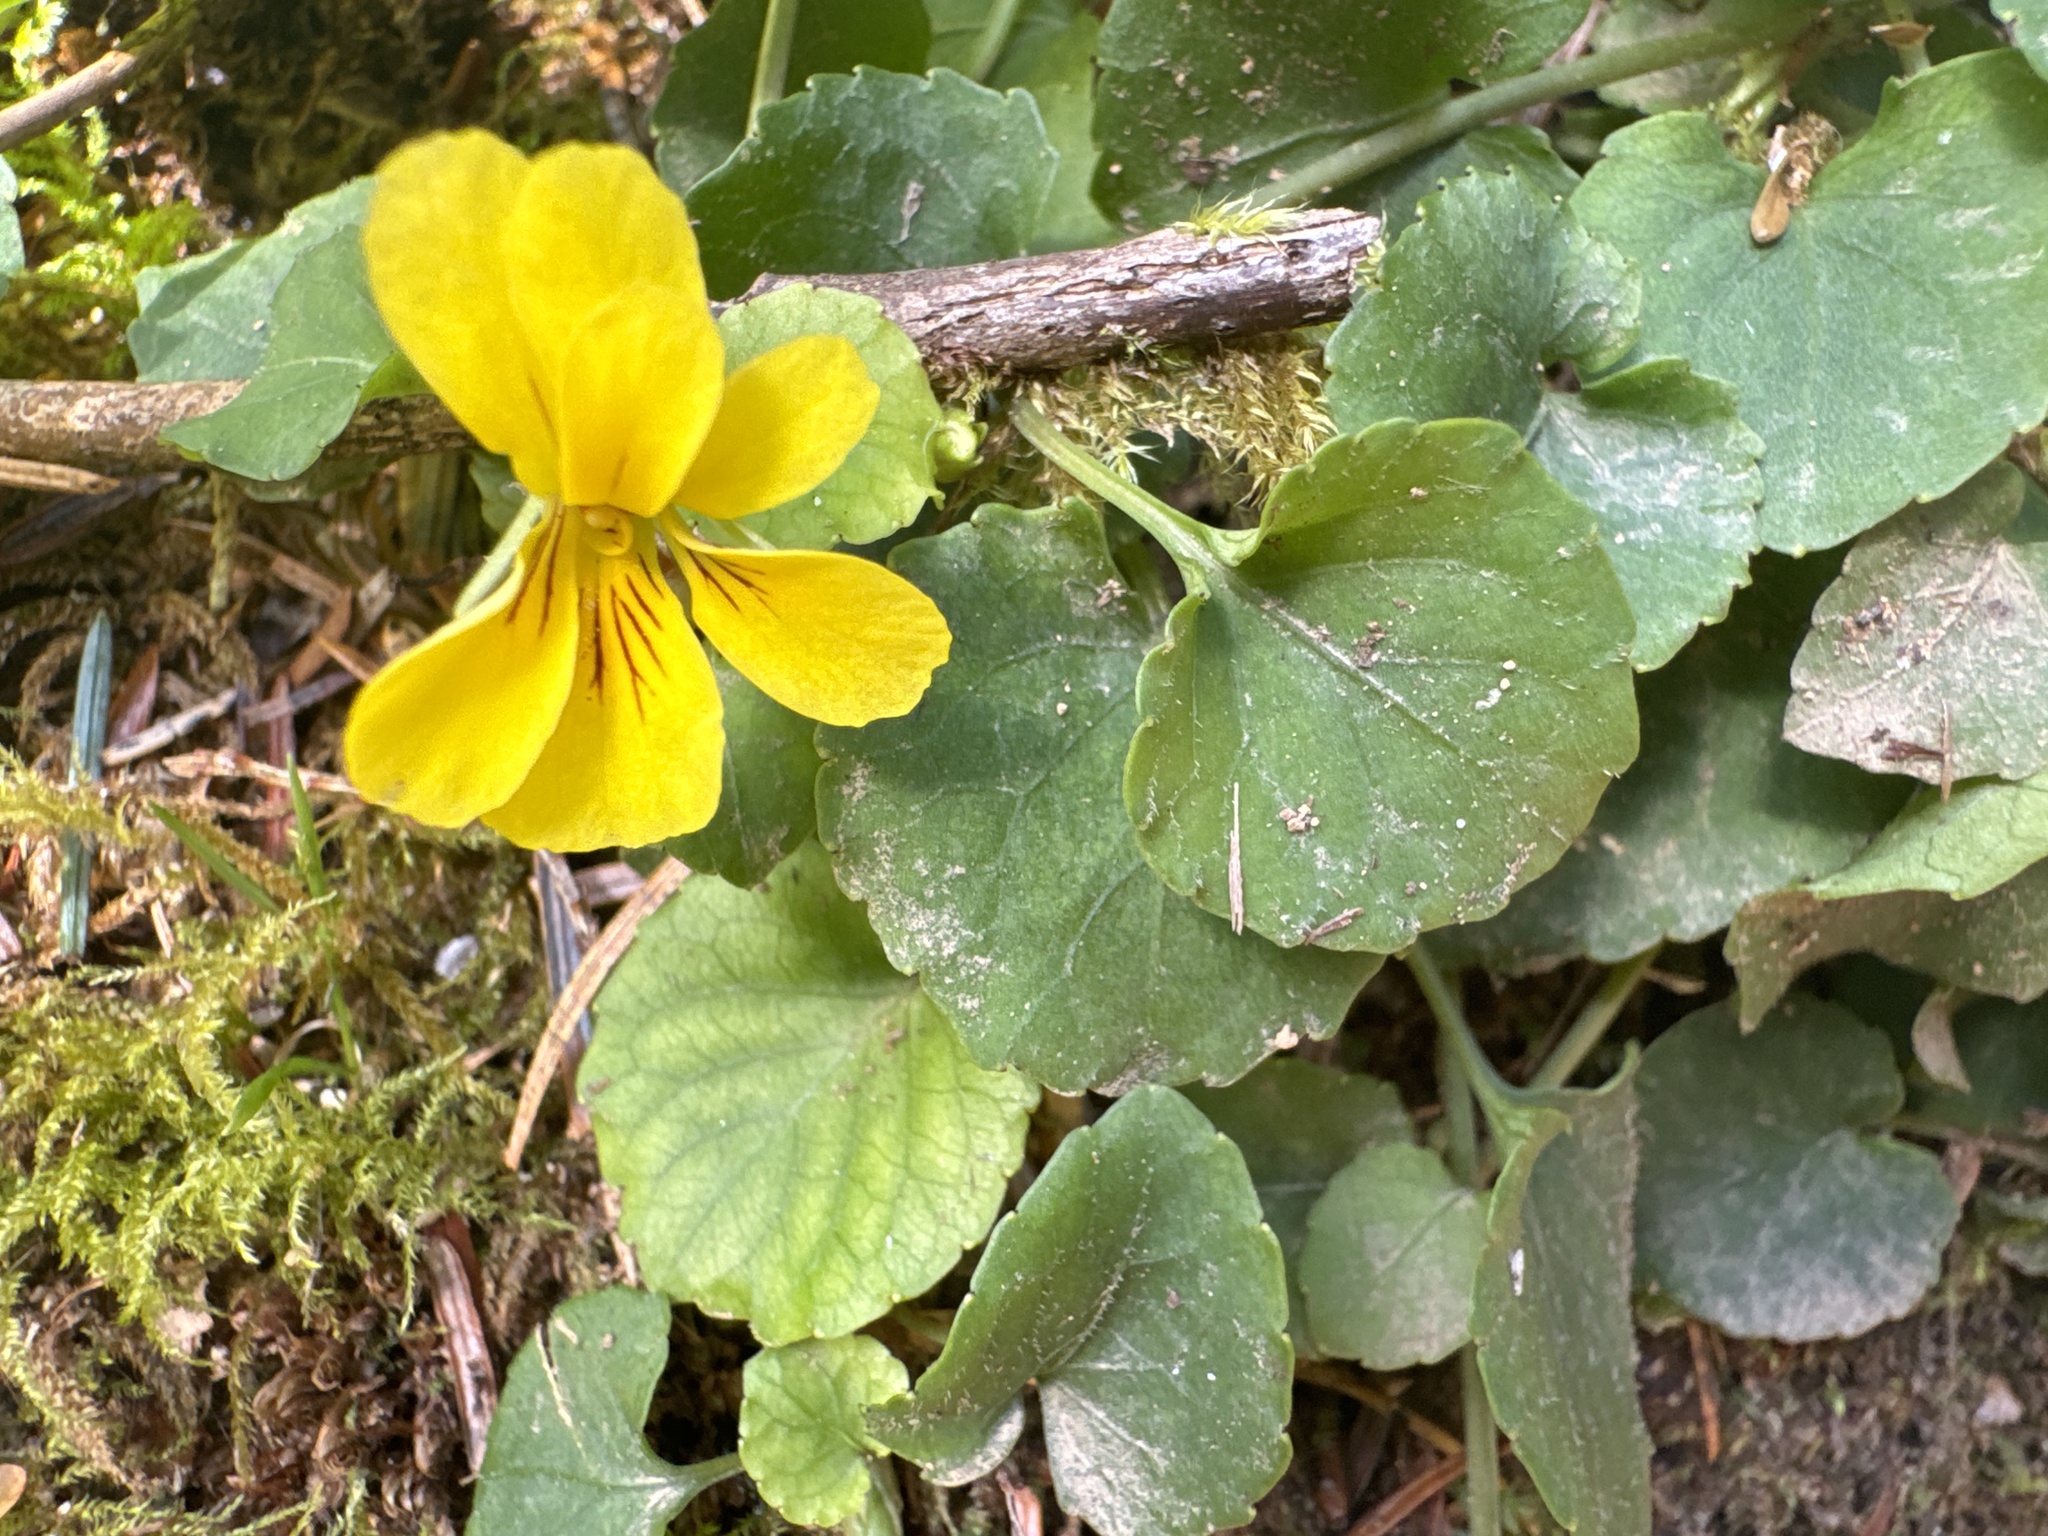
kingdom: Plantae
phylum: Tracheophyta
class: Magnoliopsida
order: Malpighiales
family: Violaceae
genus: Viola
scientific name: Viola sempervirens
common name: Evergreen violet
